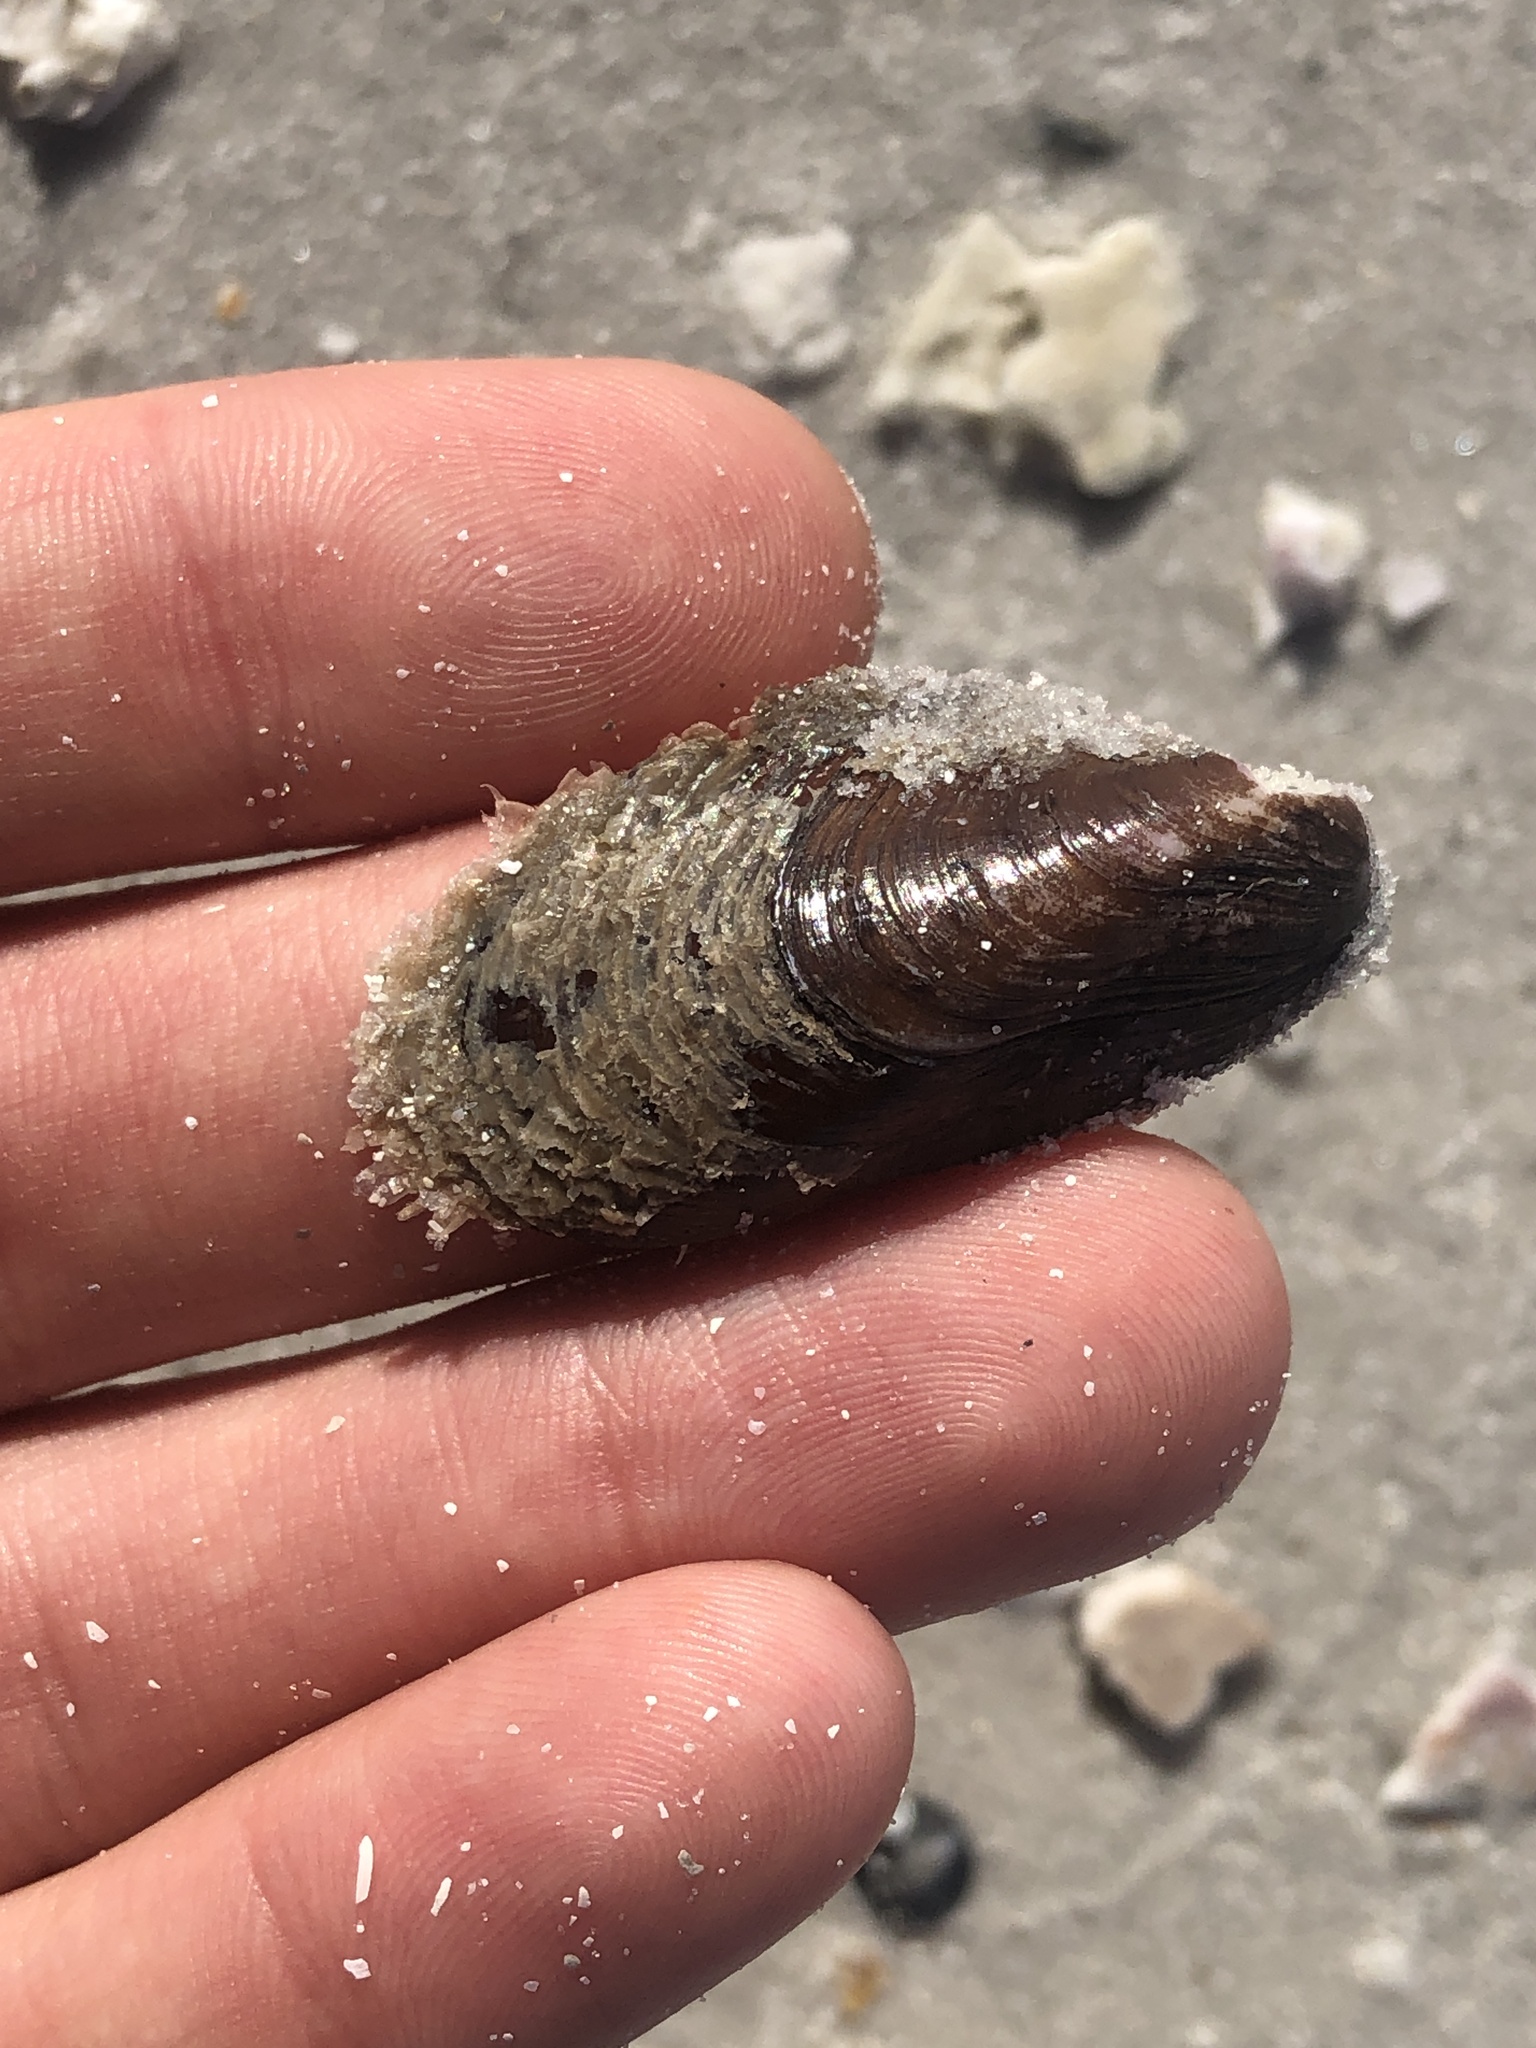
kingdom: Animalia
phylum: Mollusca
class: Bivalvia
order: Mytilida
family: Mytilidae
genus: Modiolus
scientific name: Modiolus squamosus
